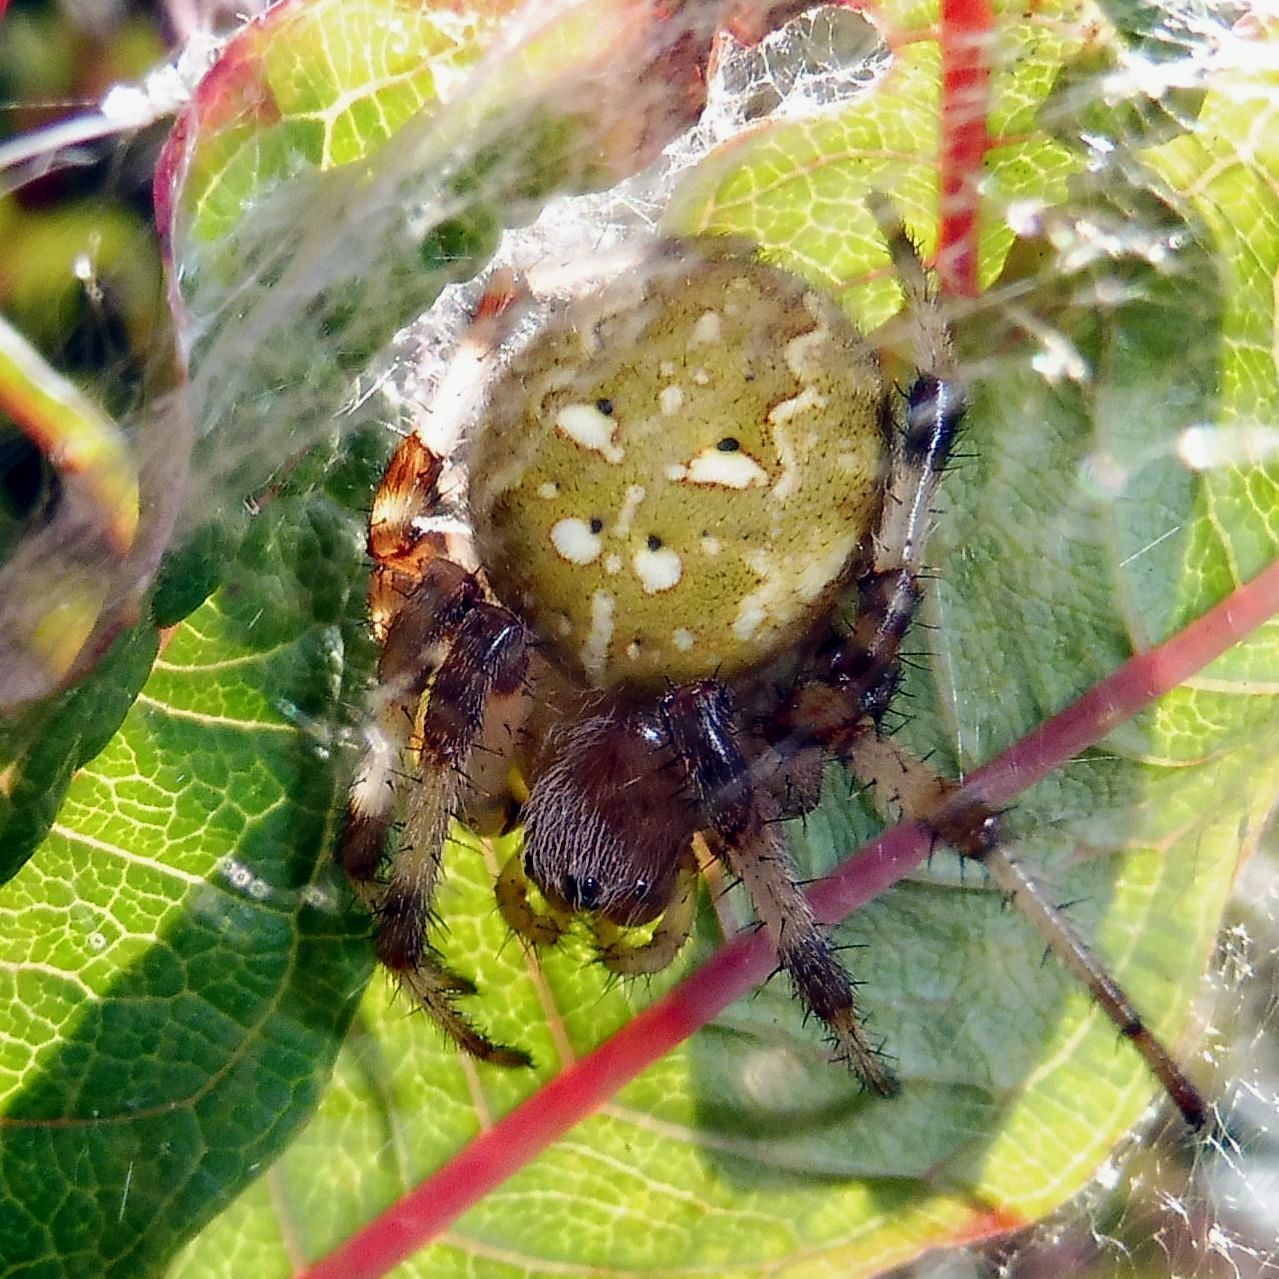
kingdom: Animalia
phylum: Arthropoda
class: Arachnida
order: Araneae
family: Araneidae
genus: Araneus
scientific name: Araneus quadratus
